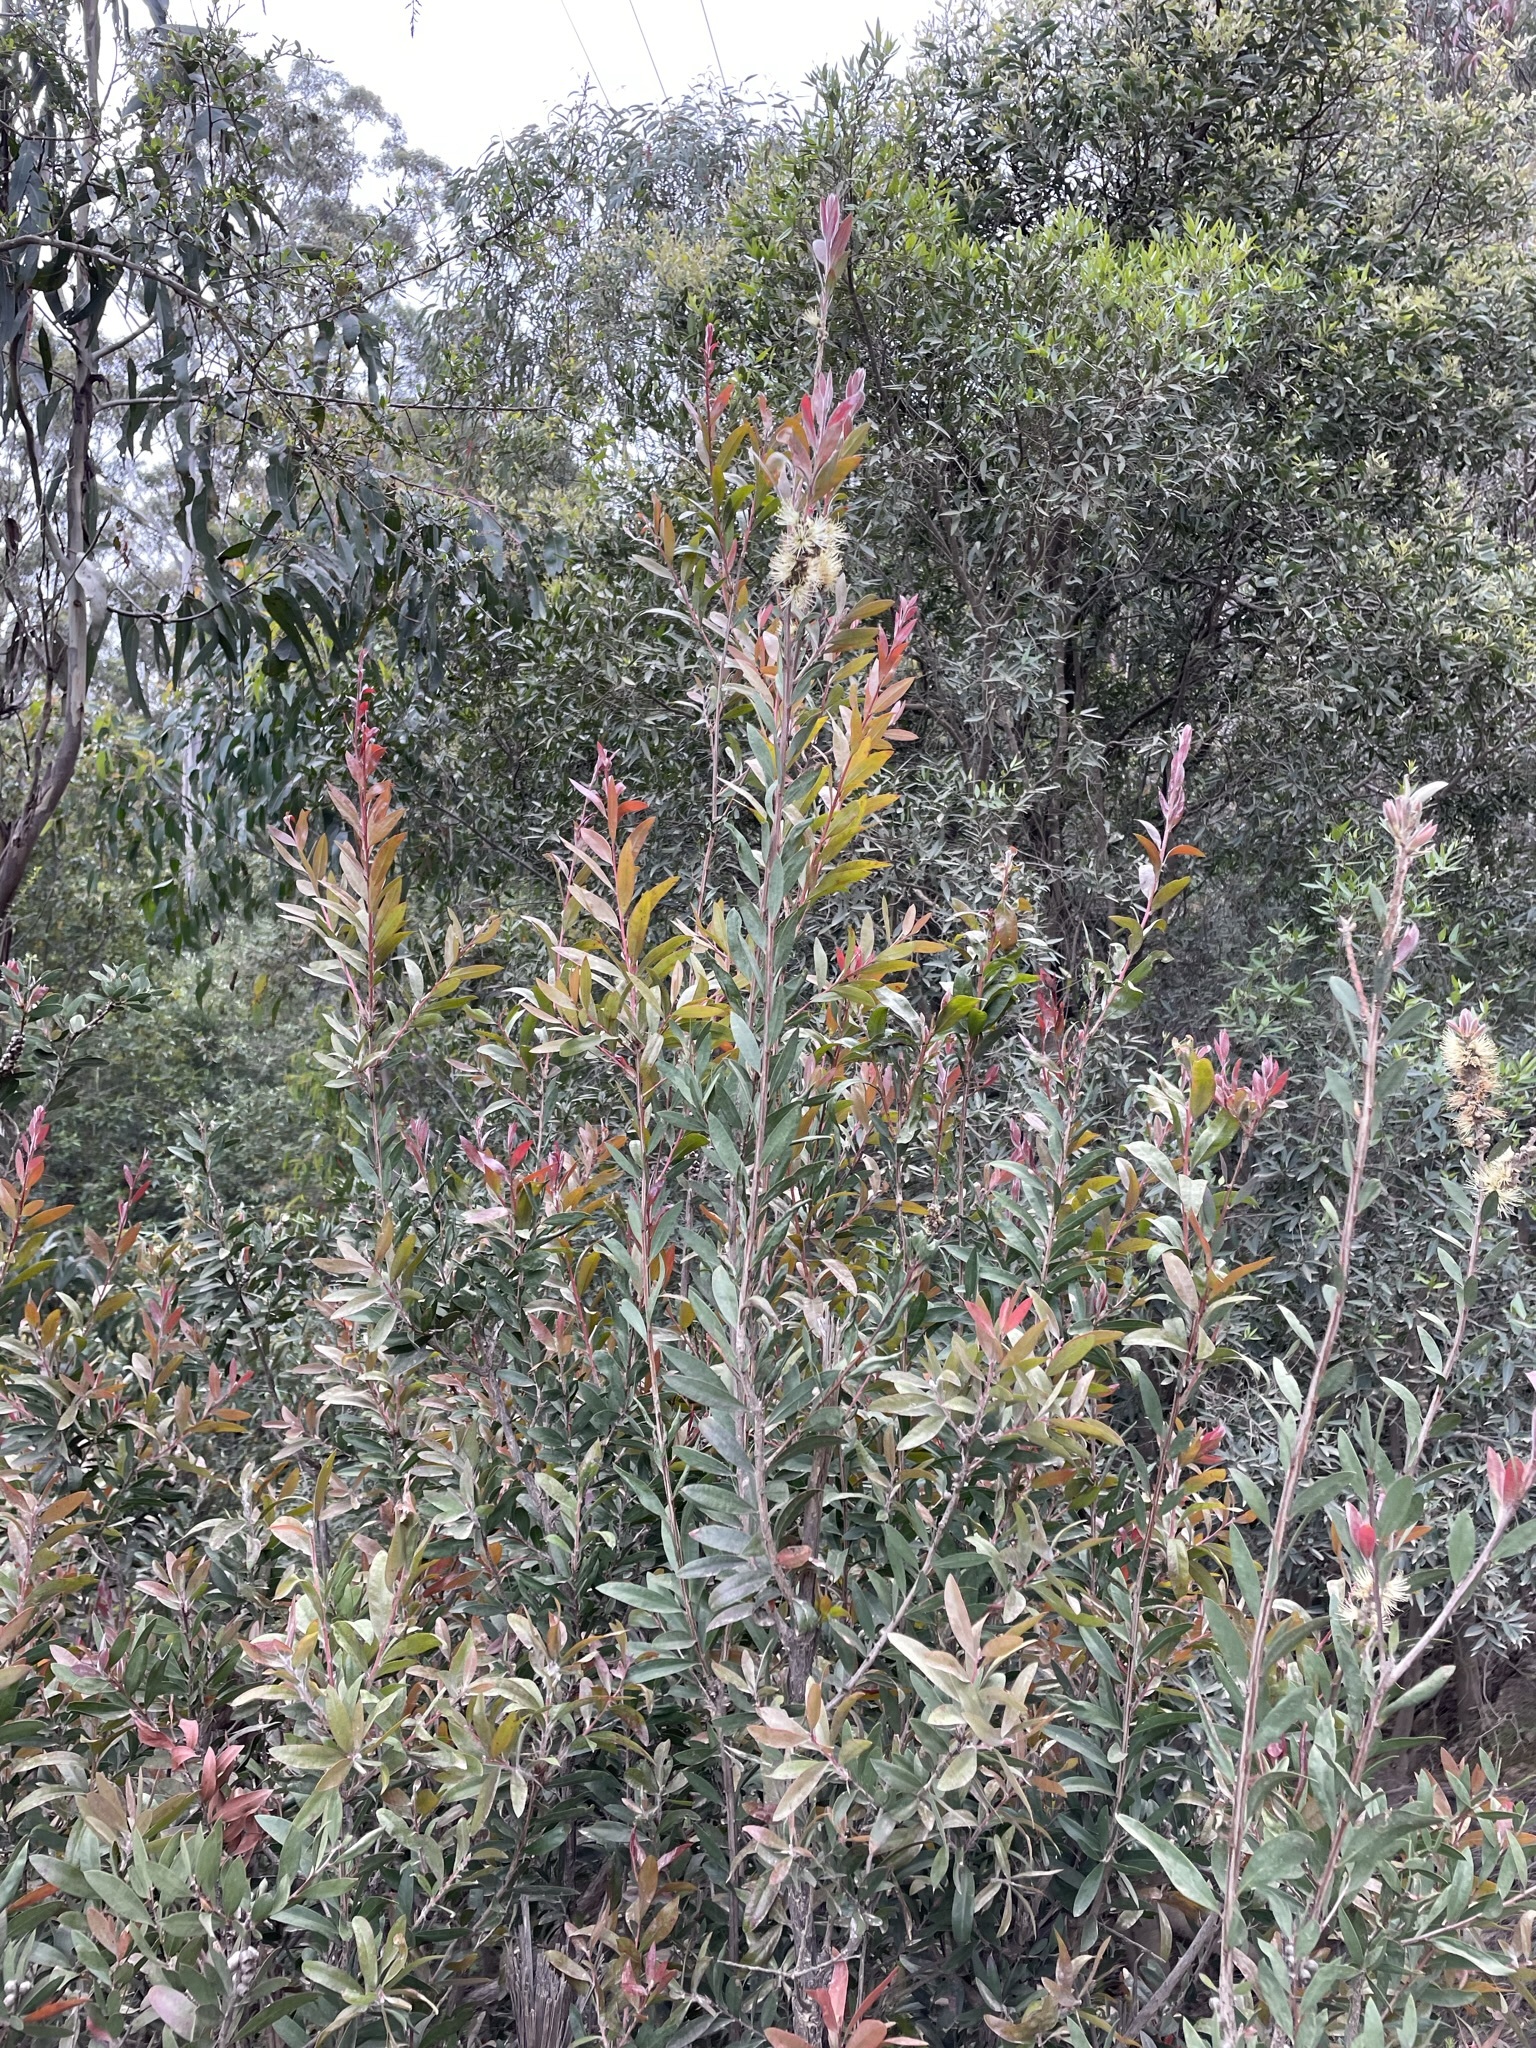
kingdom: Plantae
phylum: Tracheophyta
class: Magnoliopsida
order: Myrtales
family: Myrtaceae
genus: Melaleuca
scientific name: Melaleuca pallida
